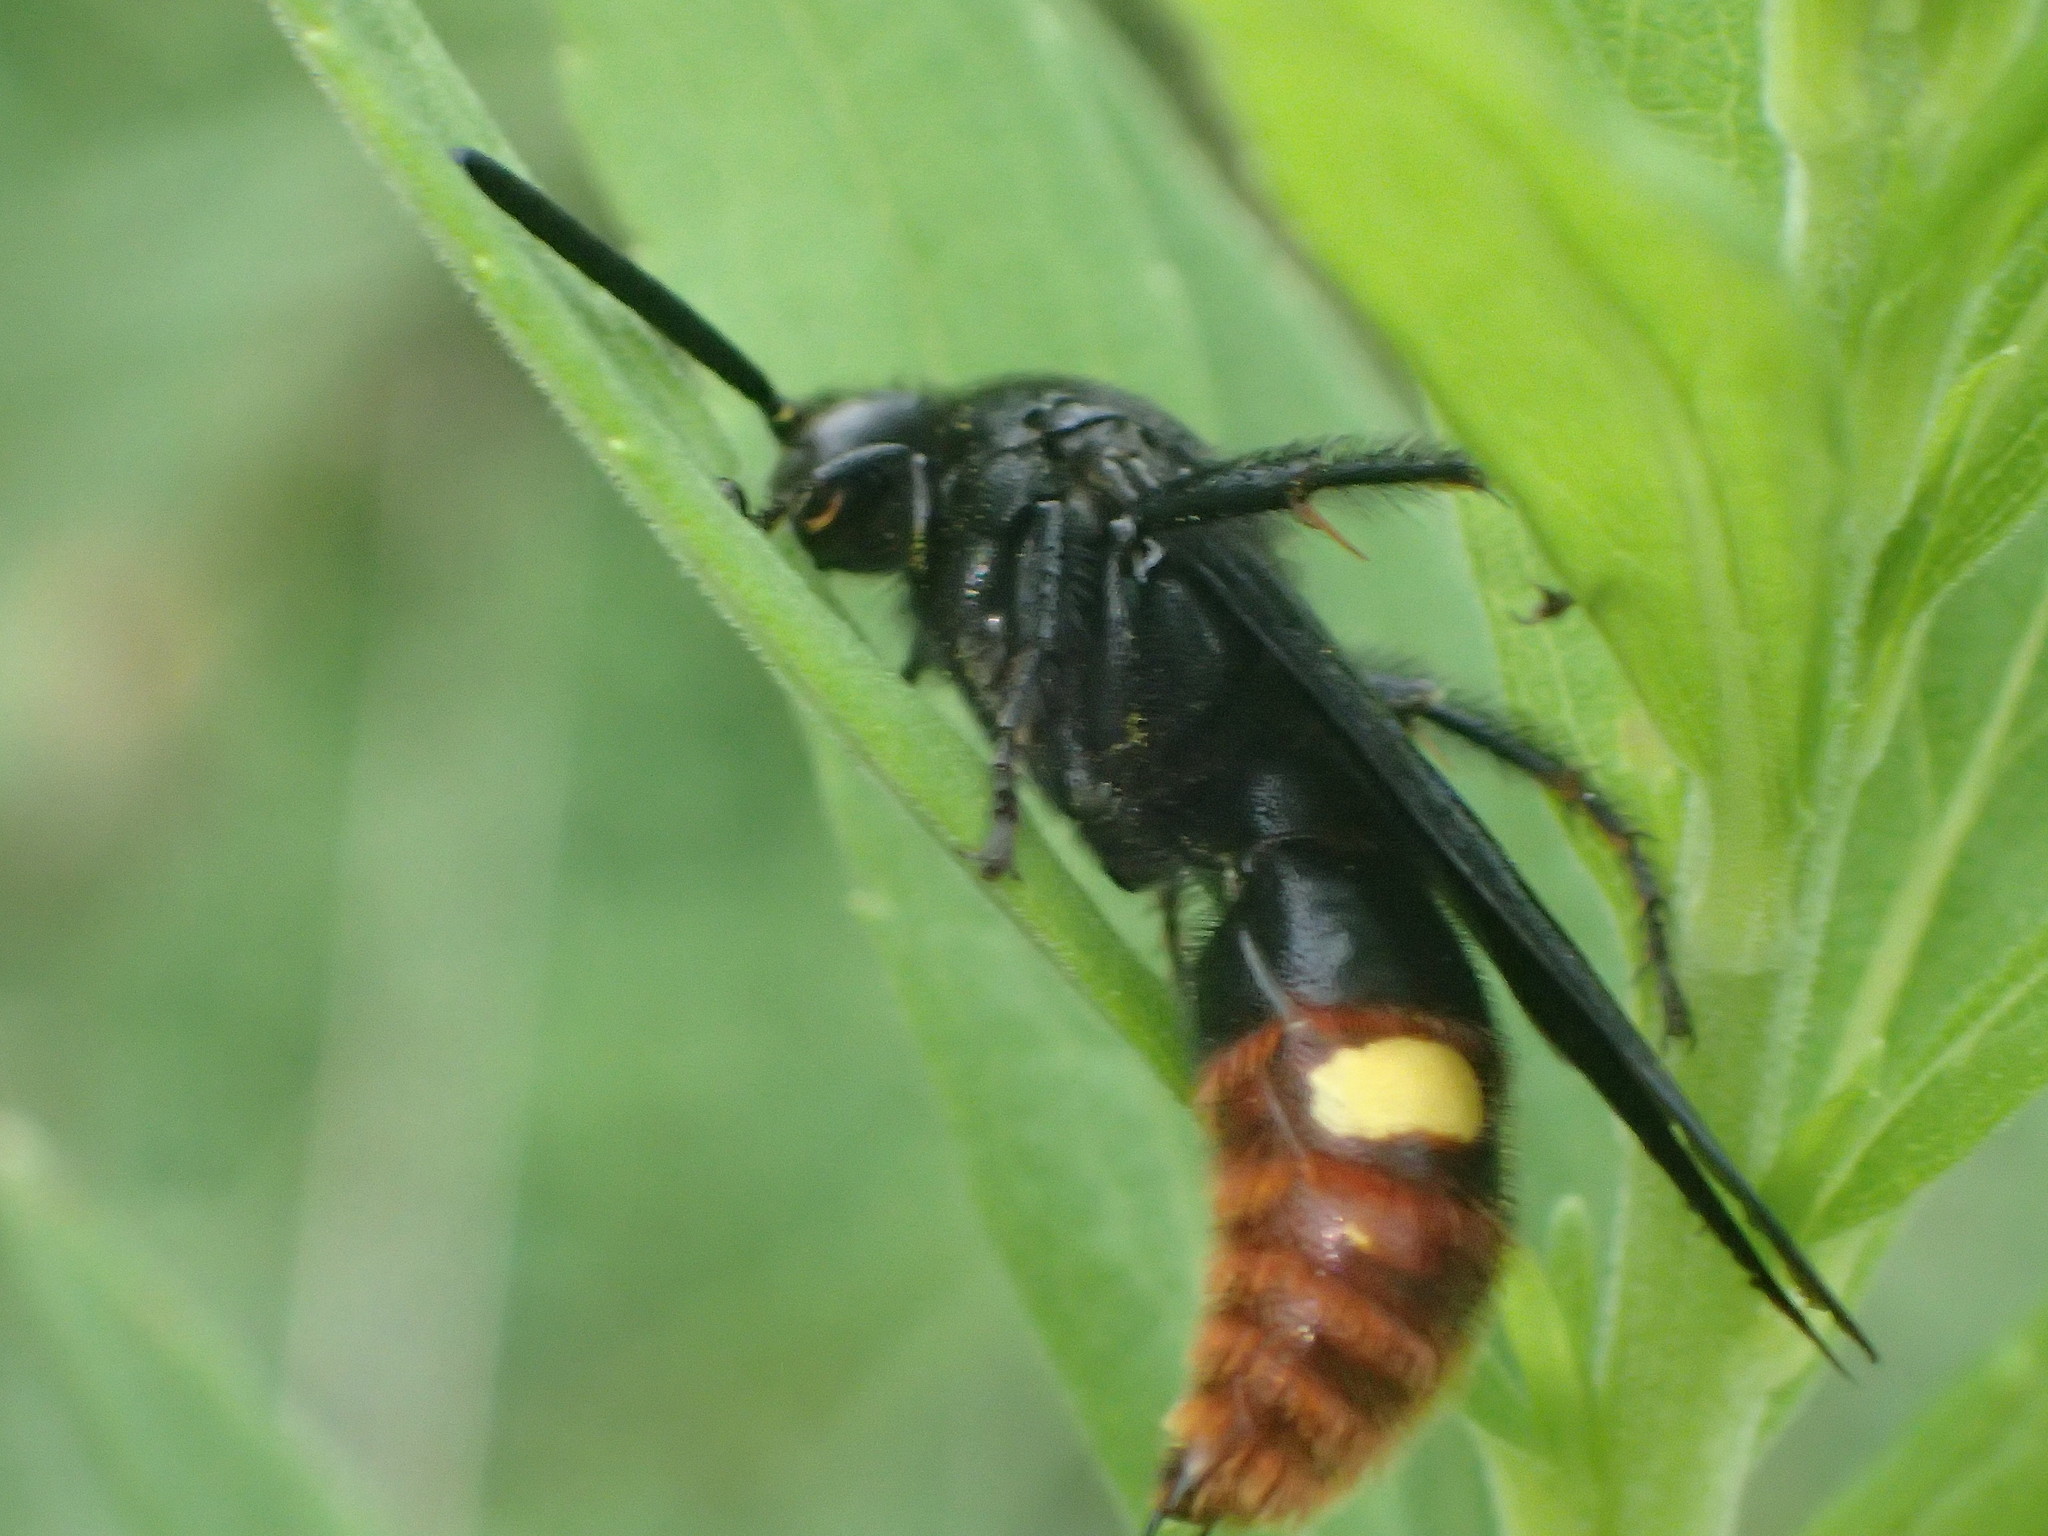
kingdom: Animalia
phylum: Arthropoda
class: Insecta
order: Hymenoptera
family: Scoliidae
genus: Scolia
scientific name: Scolia dubia
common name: Blue-winged scoliid wasp
